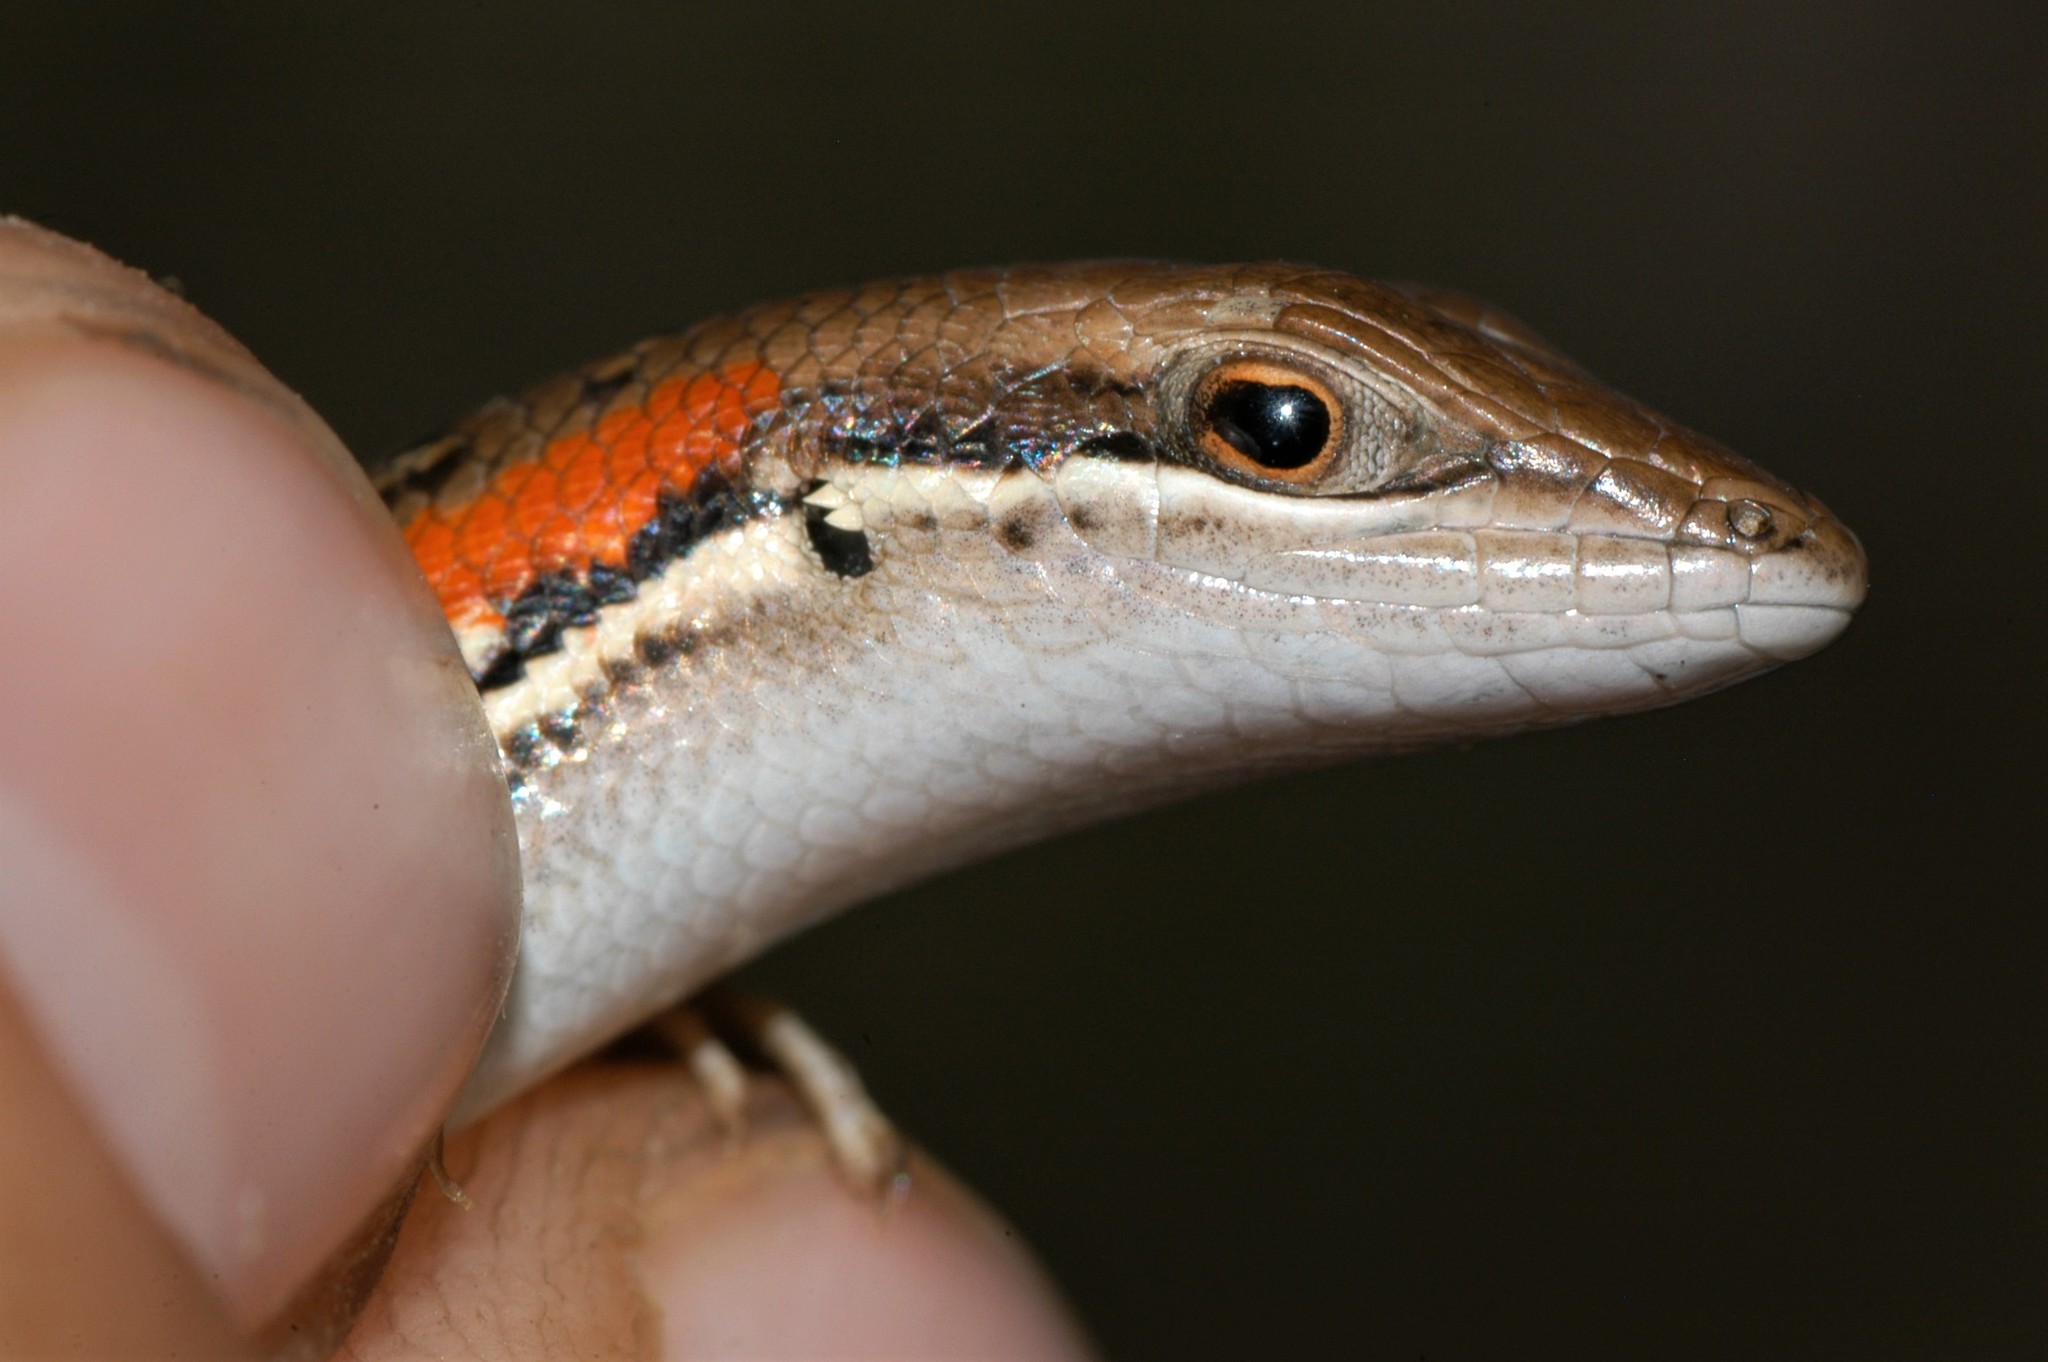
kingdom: Animalia
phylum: Chordata
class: Squamata
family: Scincidae
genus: Trachylepis
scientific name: Trachylepis elegans
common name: Elegant mabuya
